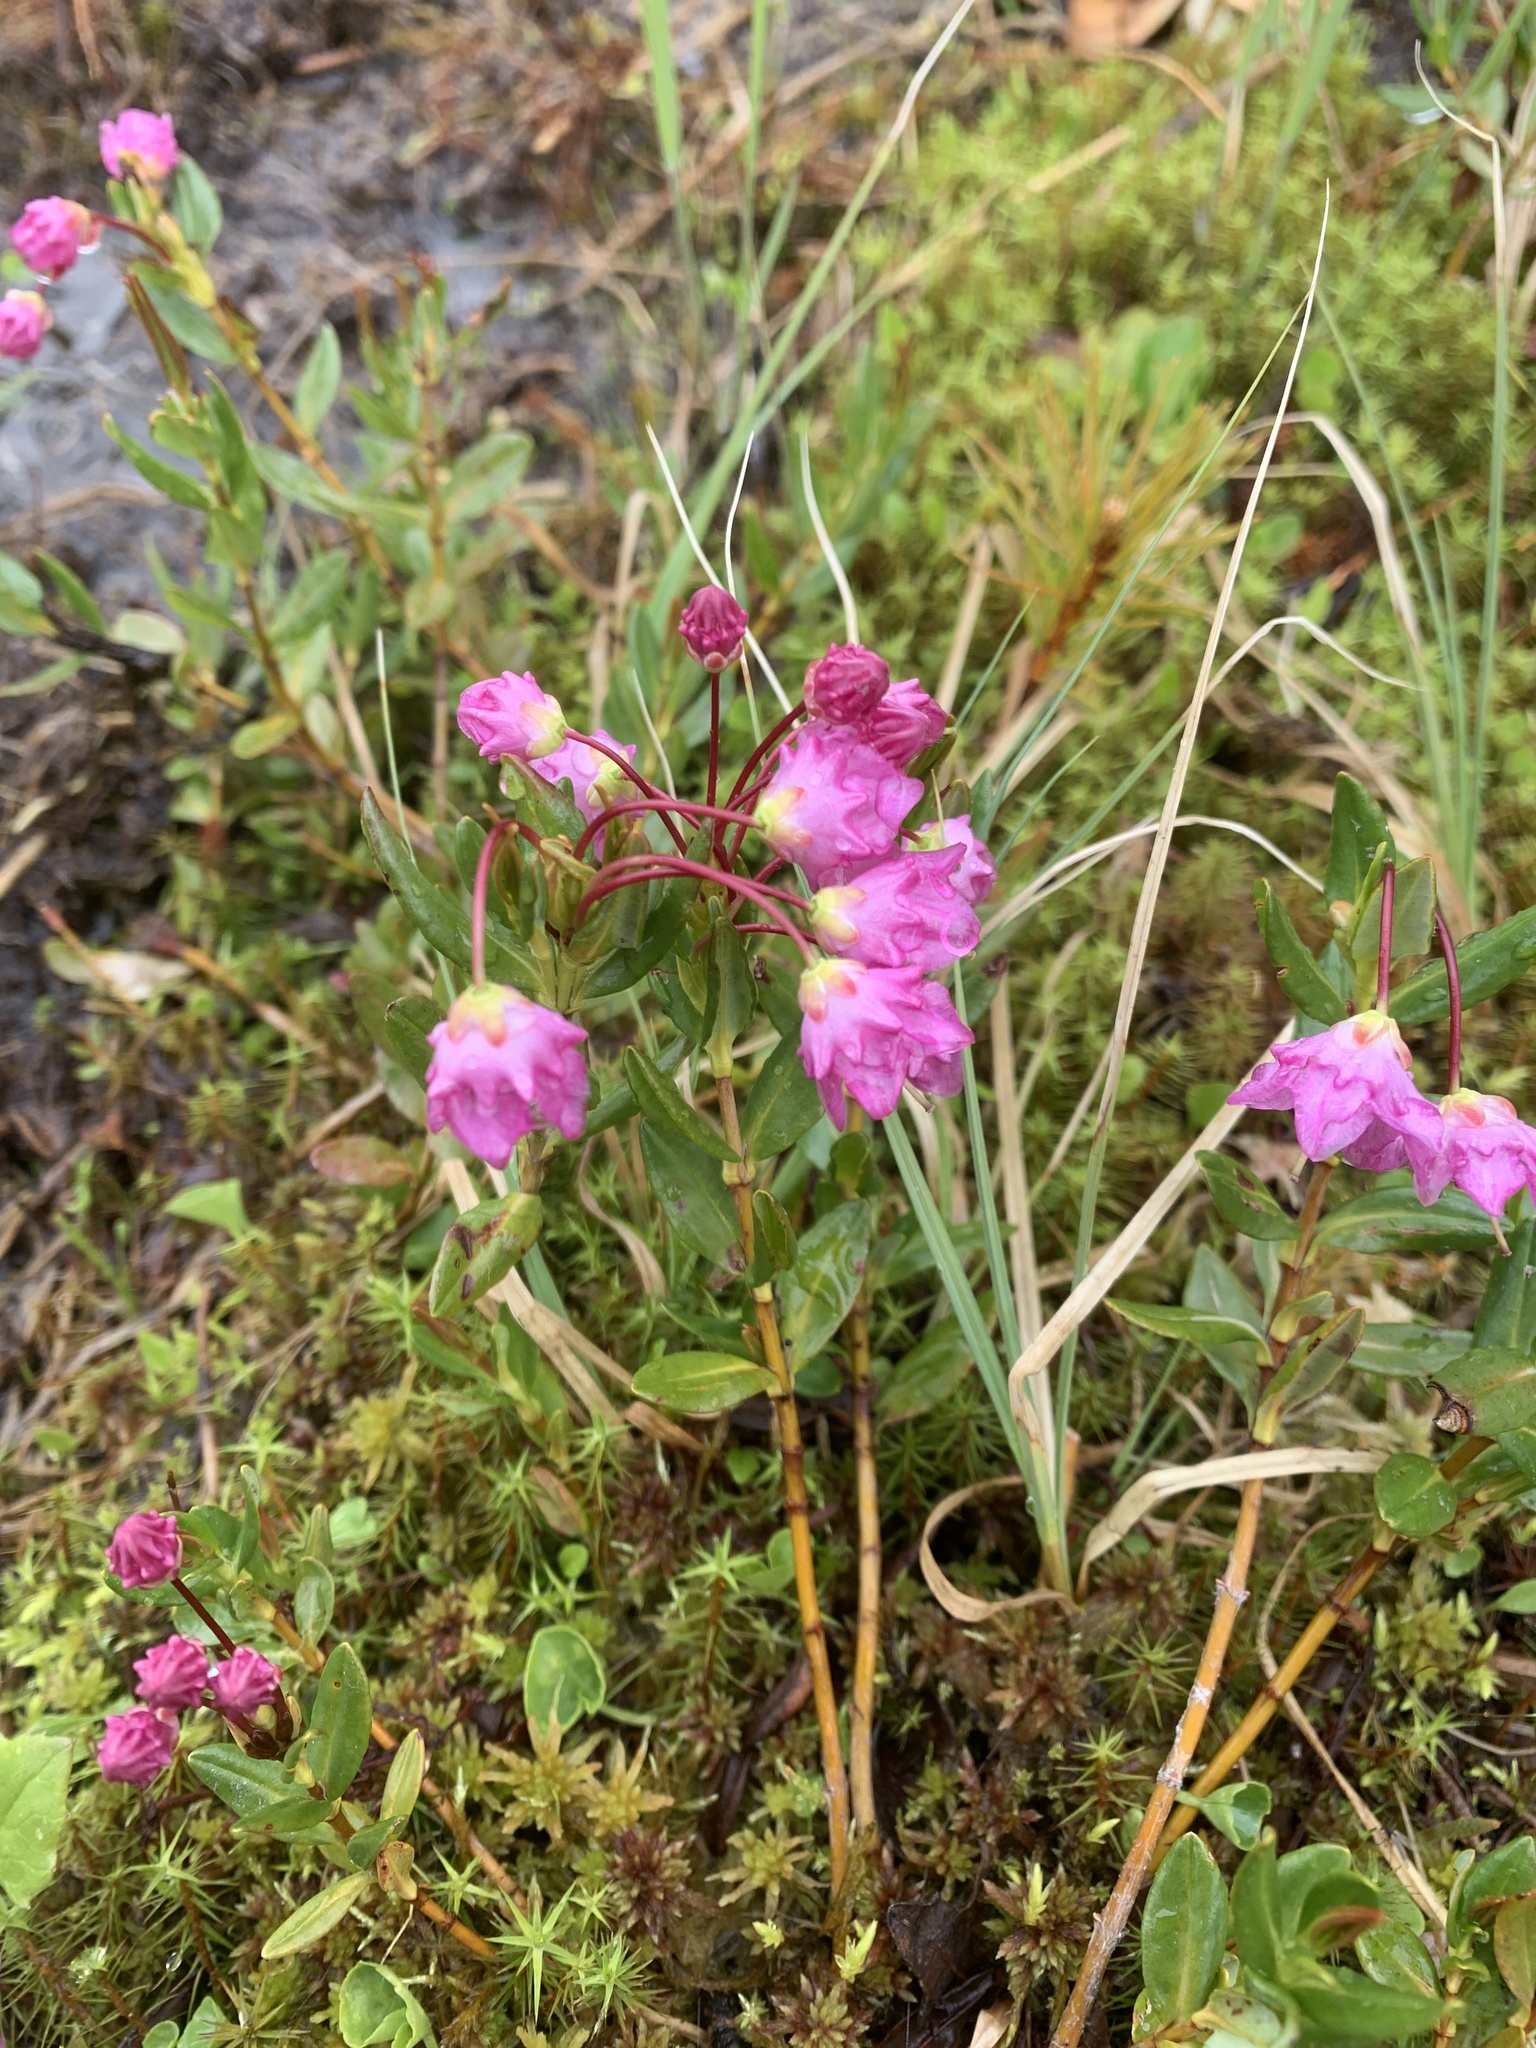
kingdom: Plantae
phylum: Tracheophyta
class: Magnoliopsida
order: Ericales
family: Ericaceae
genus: Kalmia
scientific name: Kalmia microphylla
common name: Alpine bog laurel
